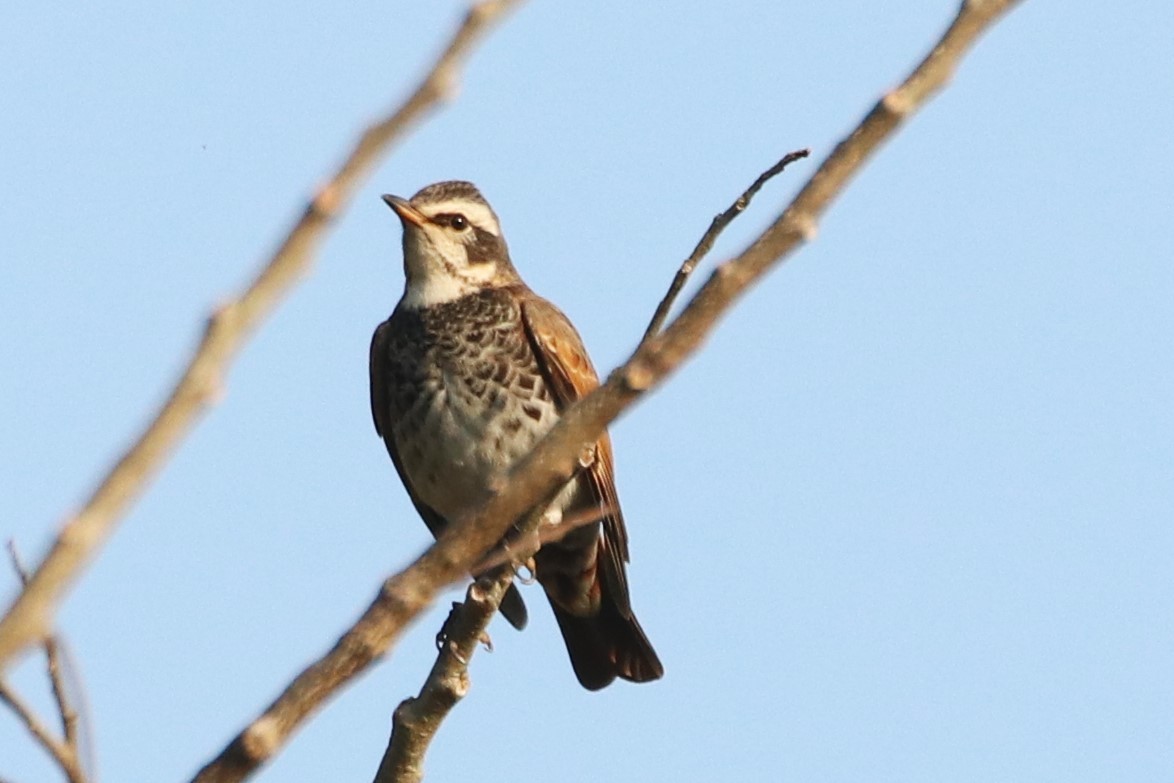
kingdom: Animalia
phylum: Chordata
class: Aves
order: Passeriformes
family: Turdidae
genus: Turdus
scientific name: Turdus eunomus
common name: Dusky thrush
